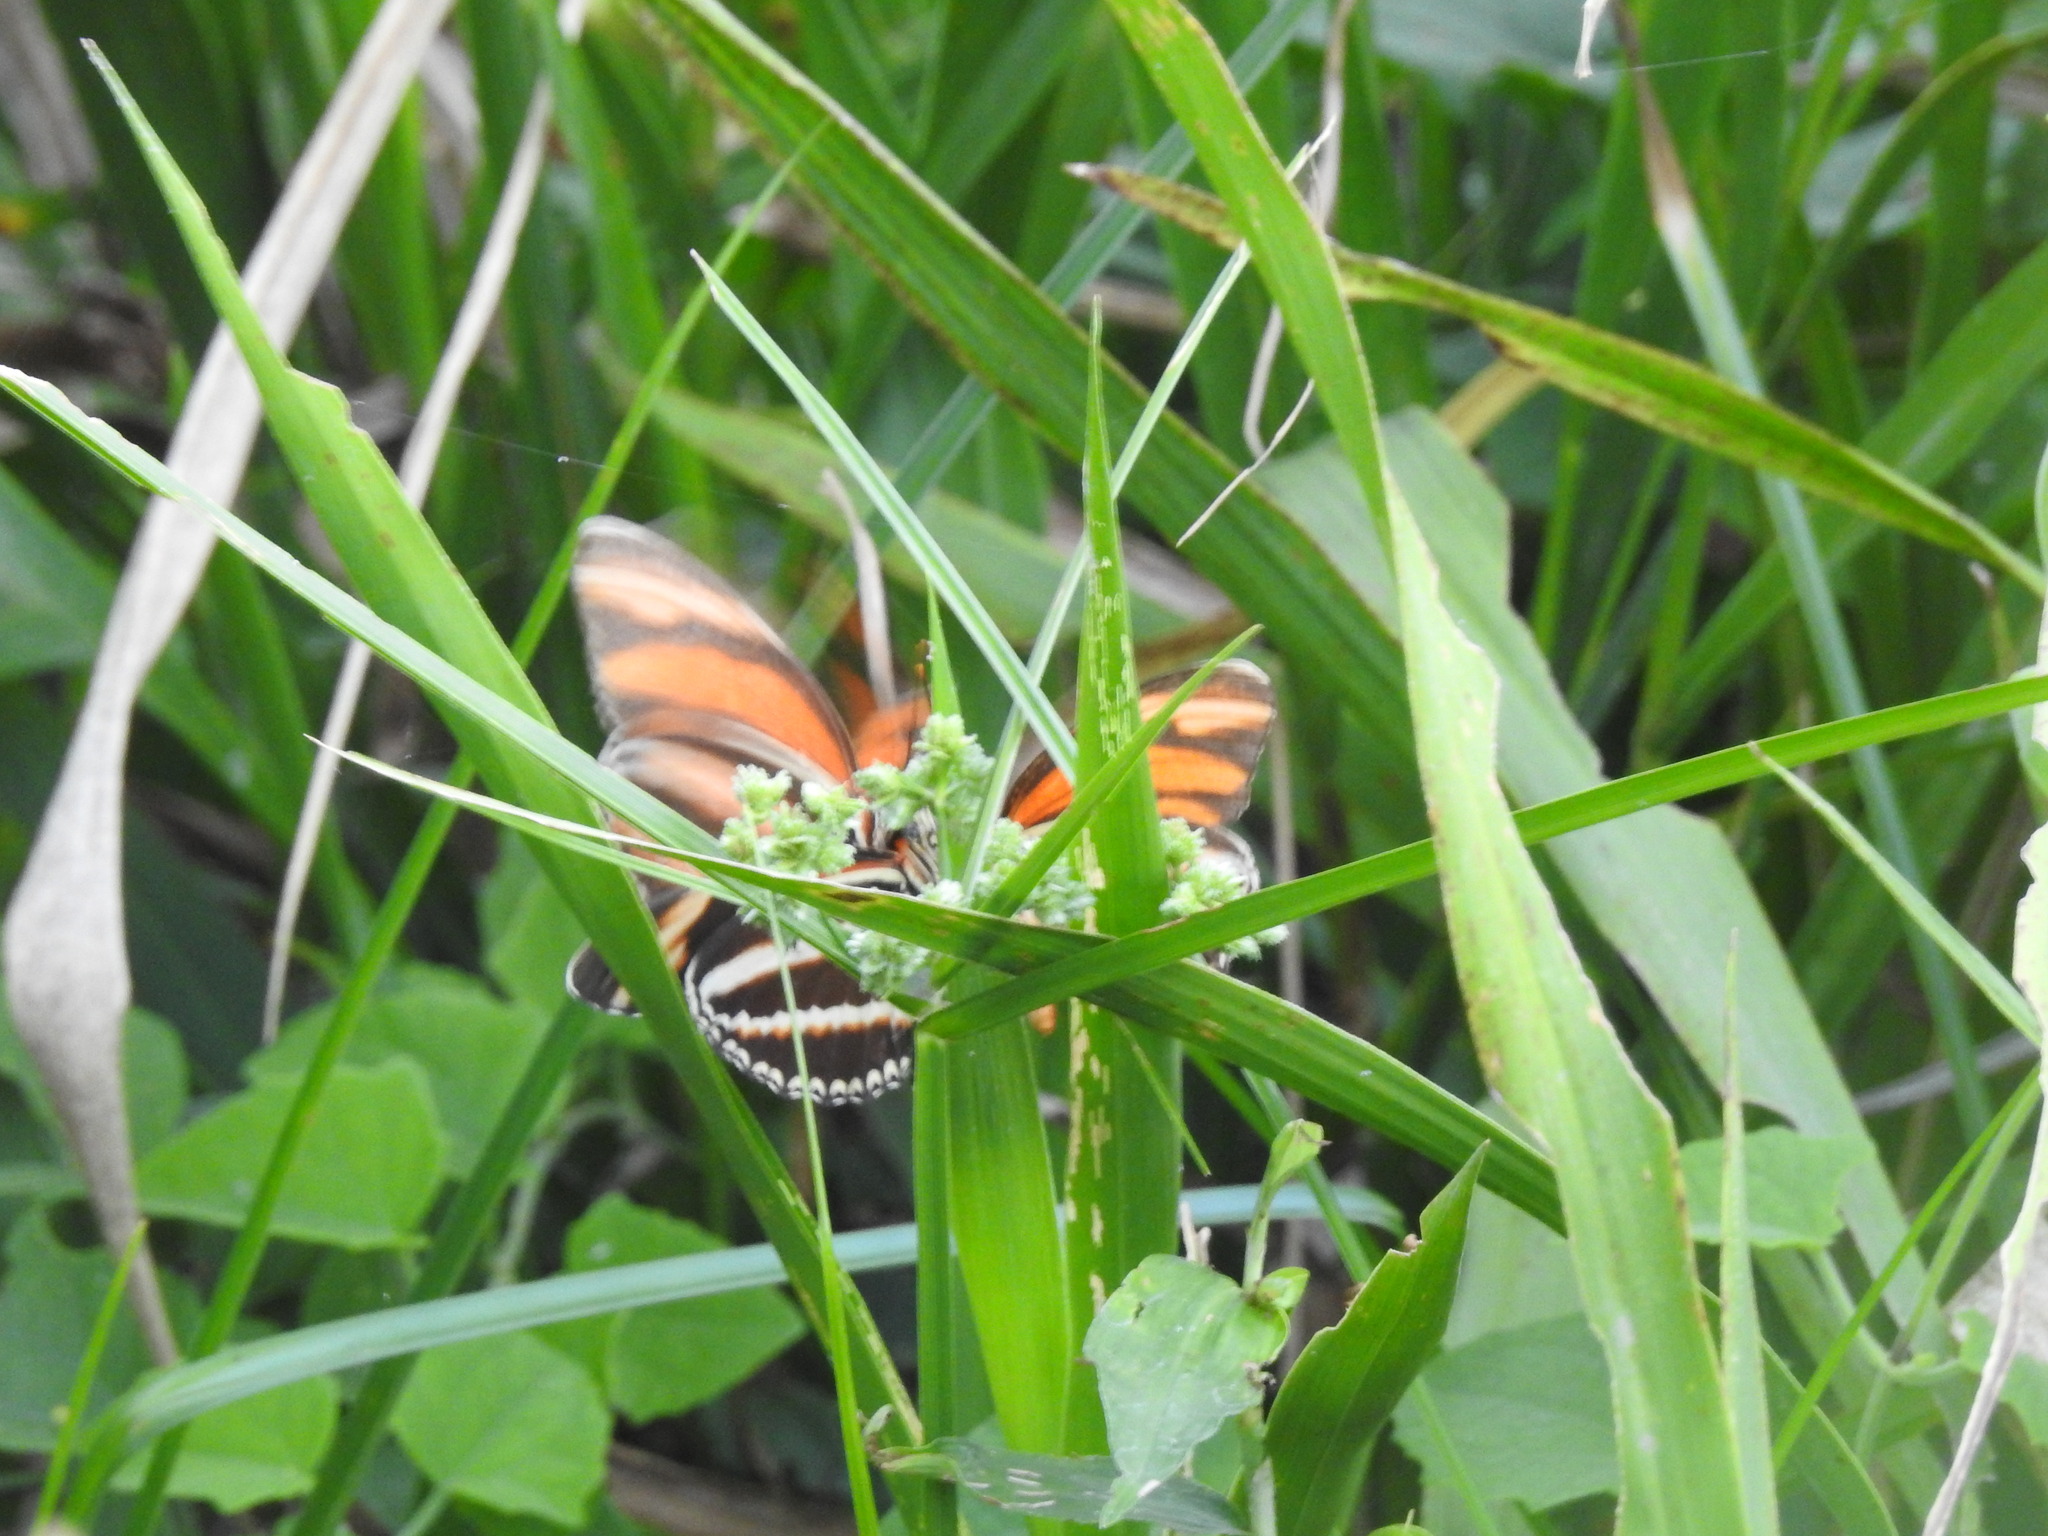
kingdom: Animalia
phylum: Arthropoda
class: Insecta
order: Lepidoptera
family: Nymphalidae
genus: Dryadula
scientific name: Dryadula phaetusa
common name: Banded orange heliconian
